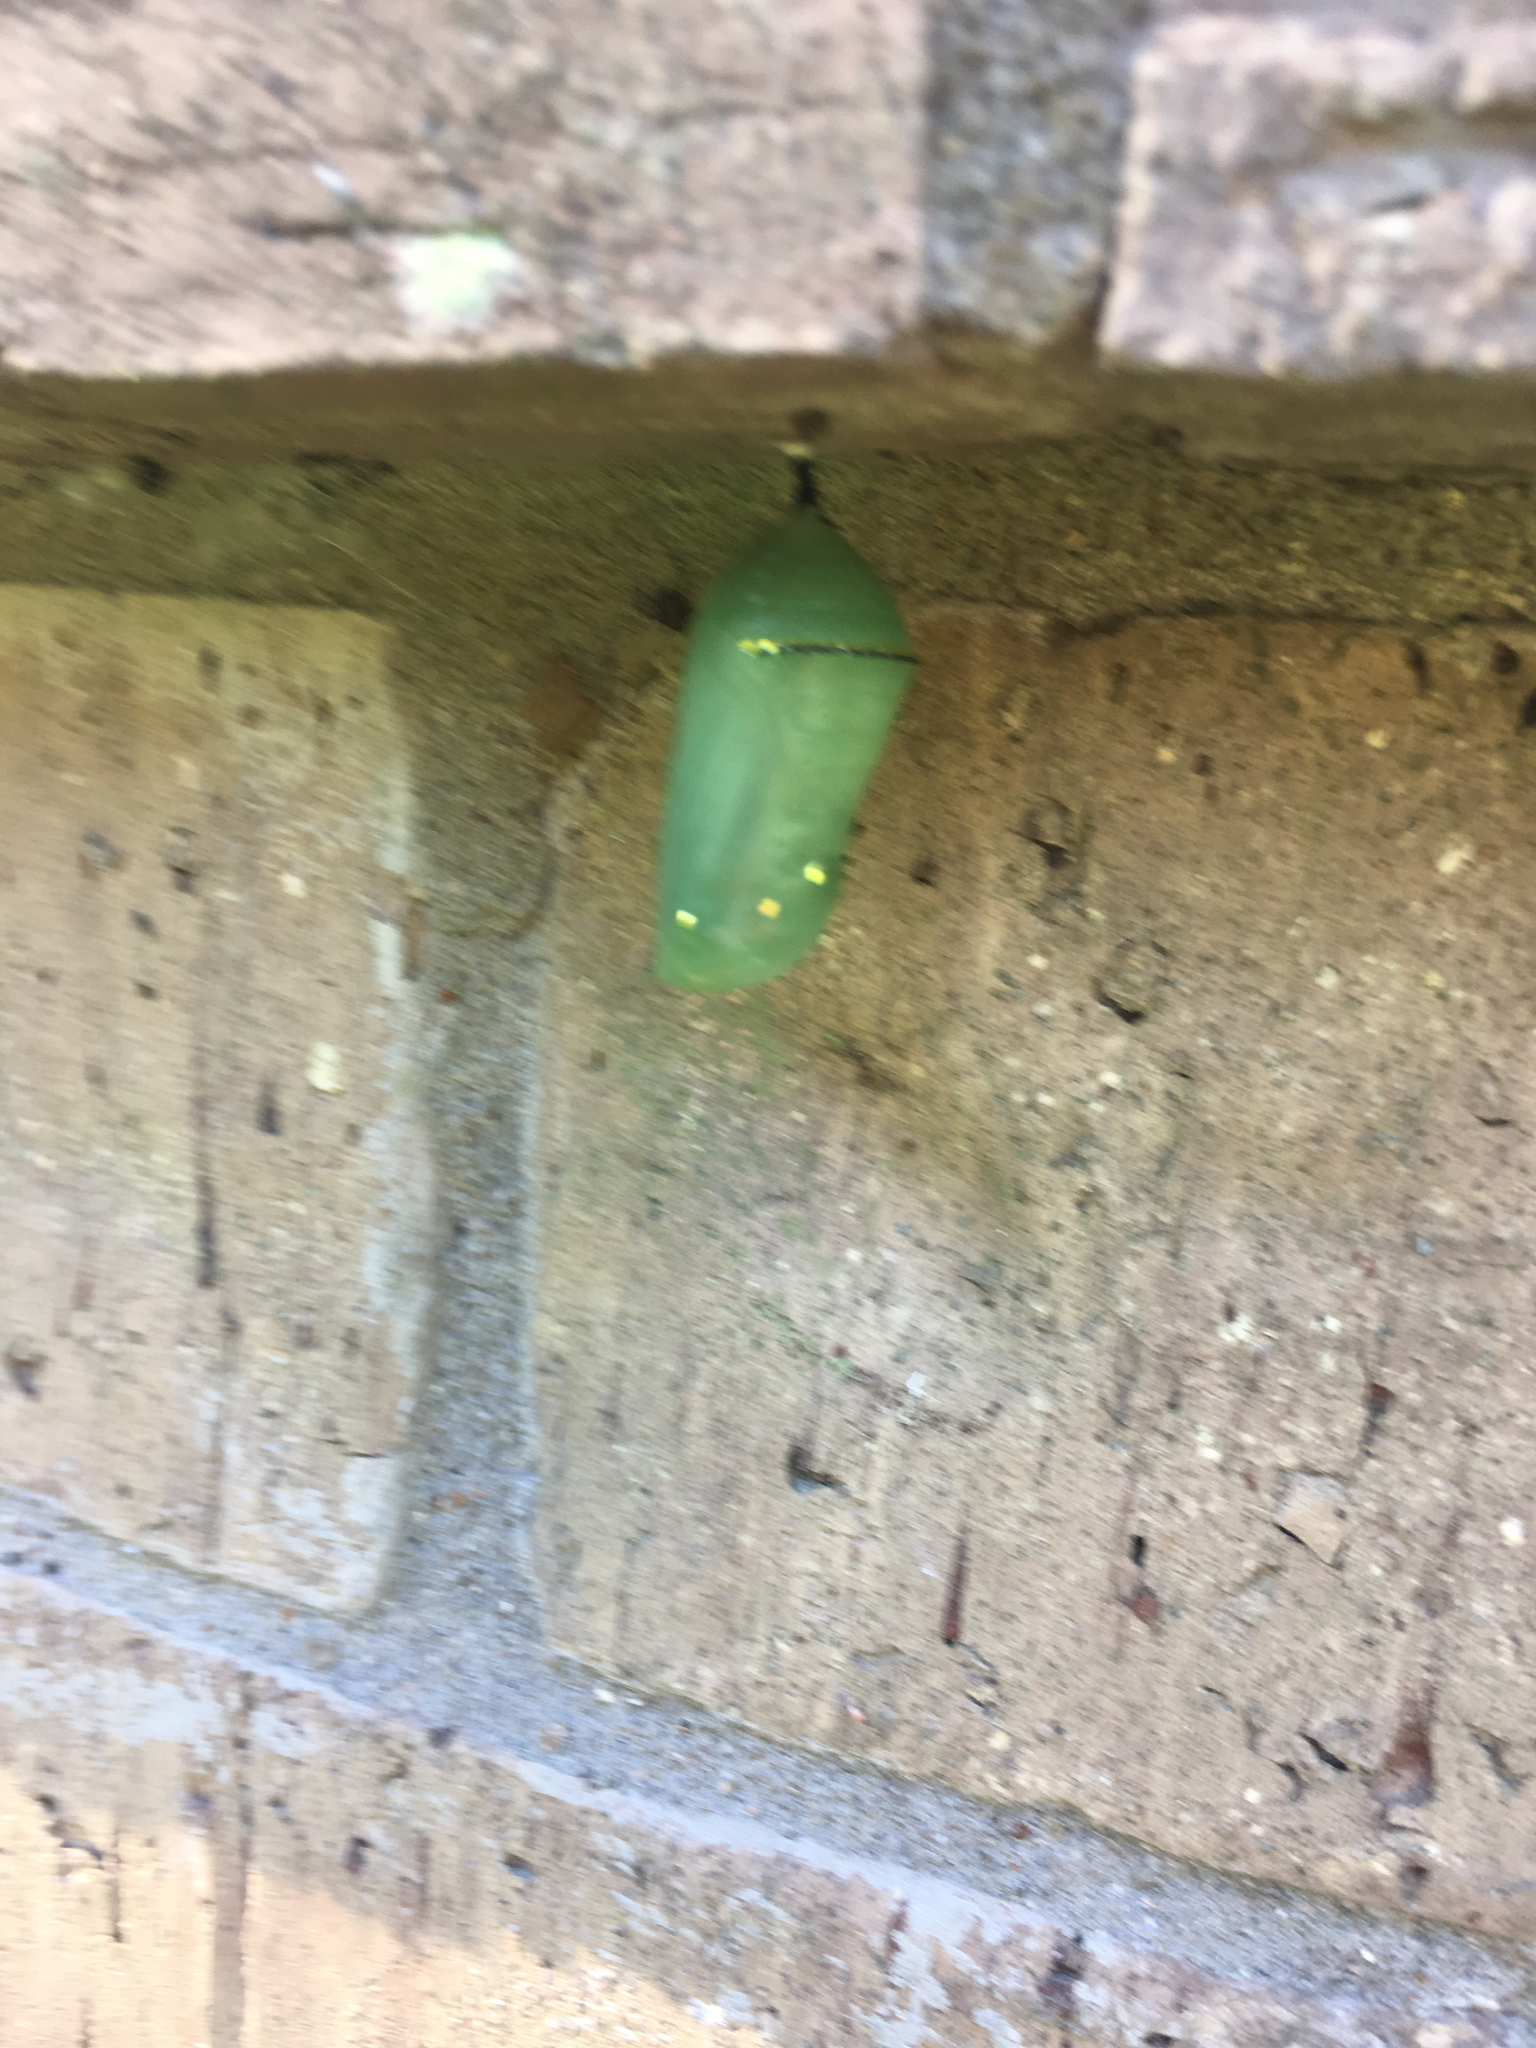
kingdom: Animalia
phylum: Arthropoda
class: Insecta
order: Lepidoptera
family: Nymphalidae
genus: Danaus
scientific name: Danaus plexippus
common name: Monarch
